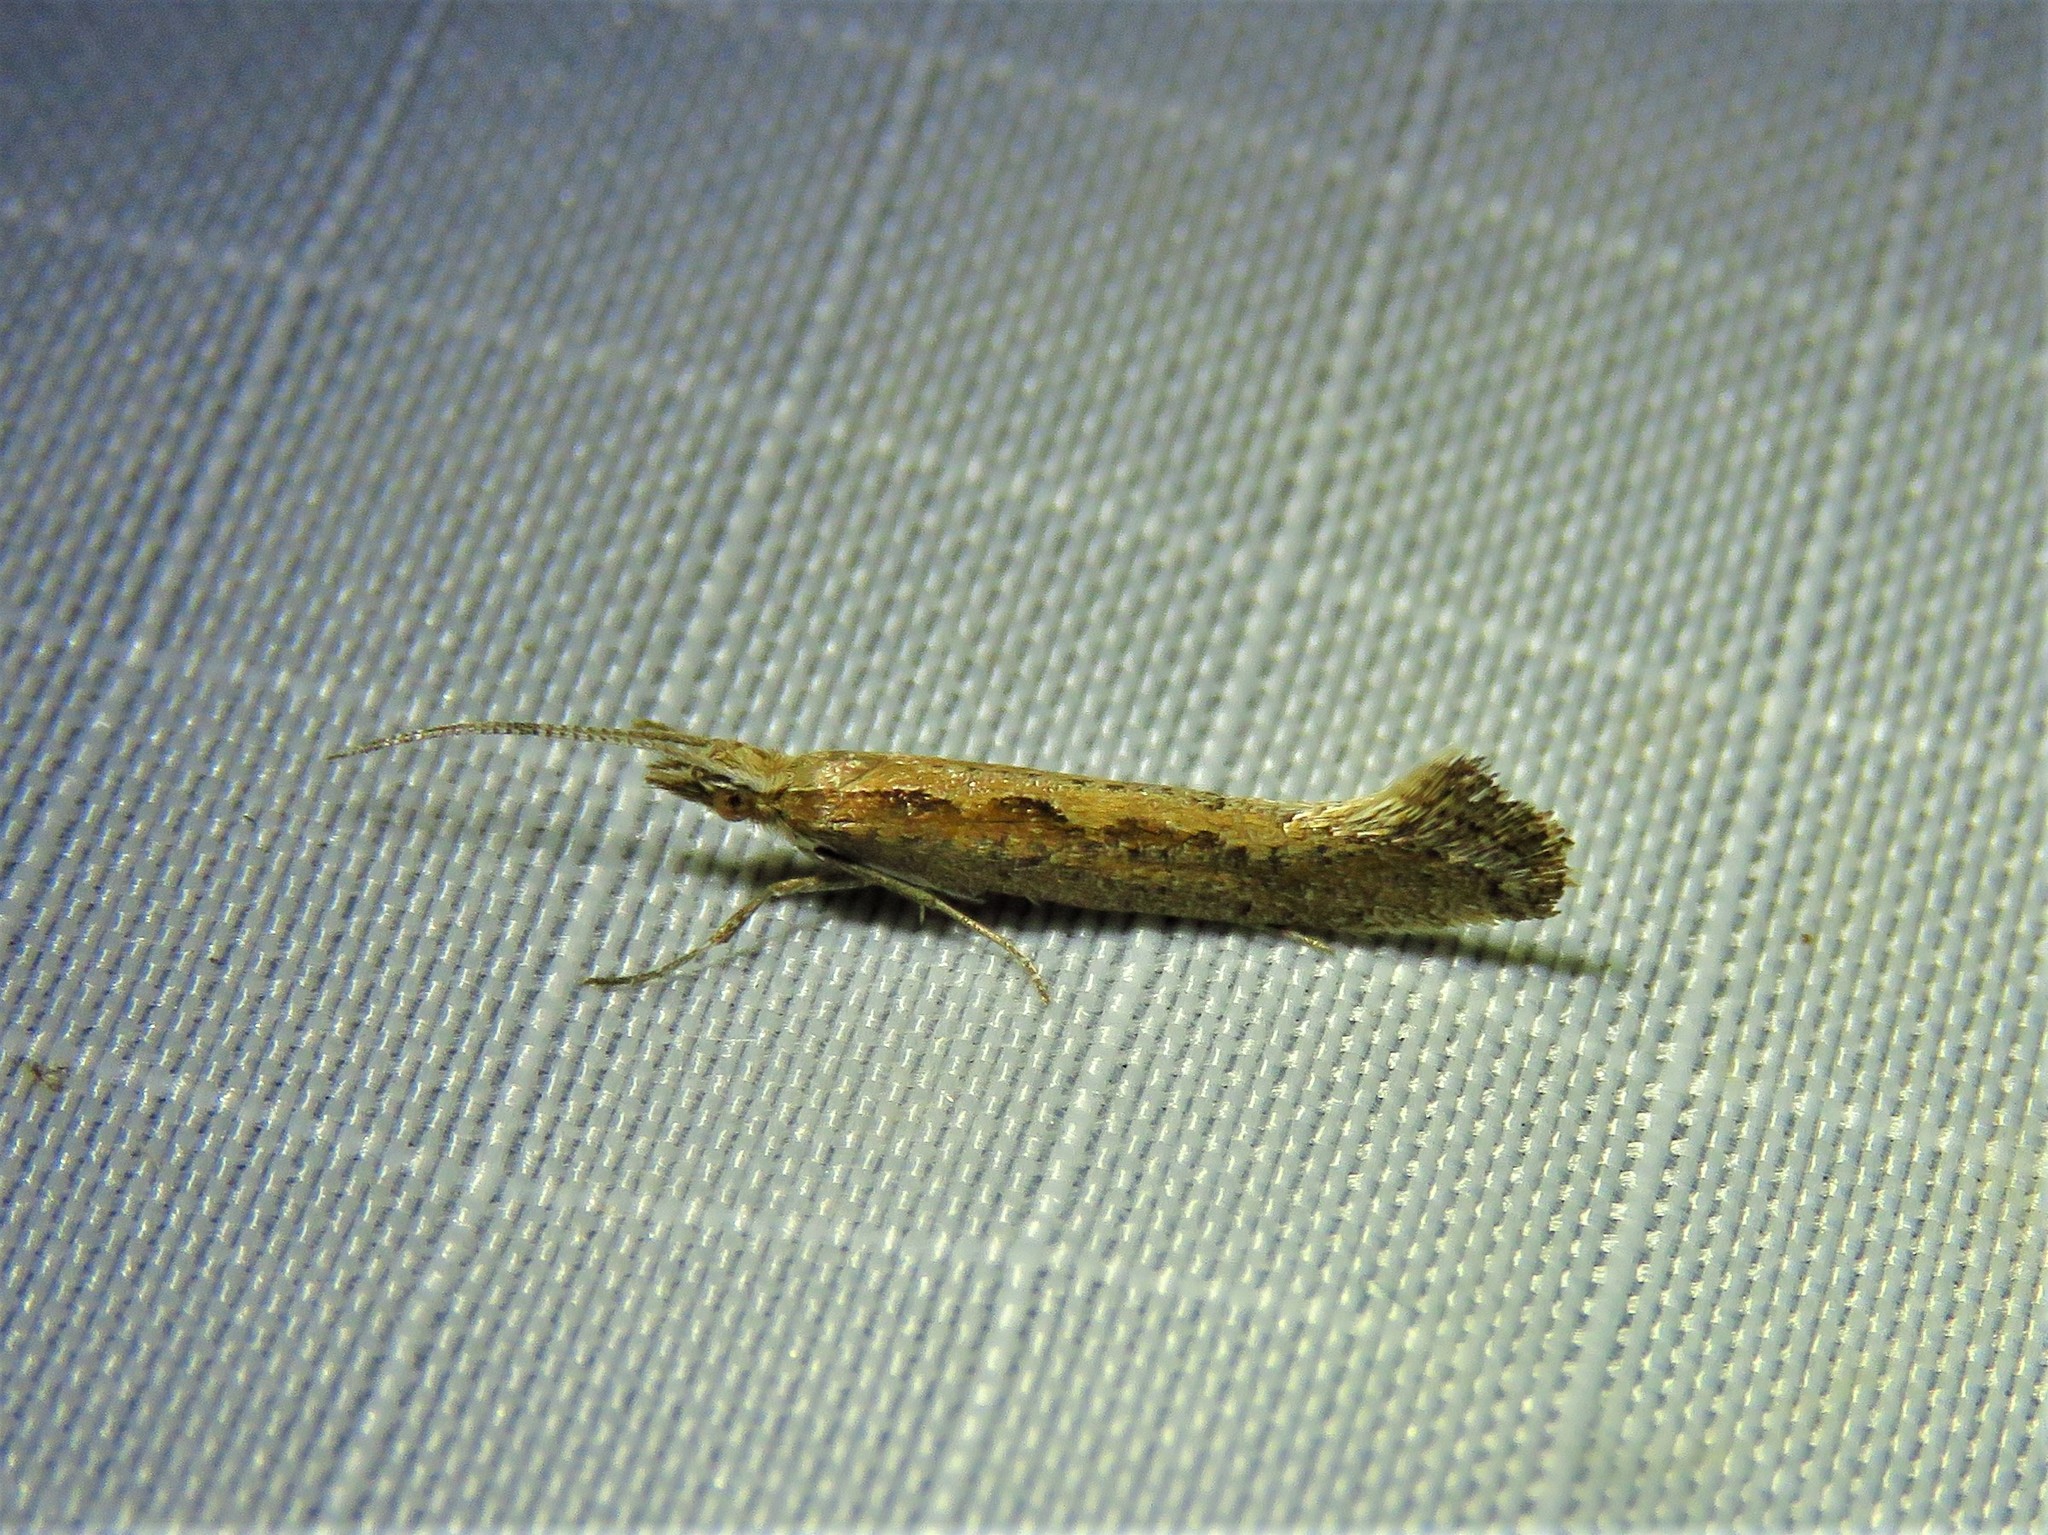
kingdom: Animalia
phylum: Arthropoda
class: Insecta
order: Lepidoptera
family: Plutellidae
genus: Plutella
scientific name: Plutella xylostella
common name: Diamond-back moth
